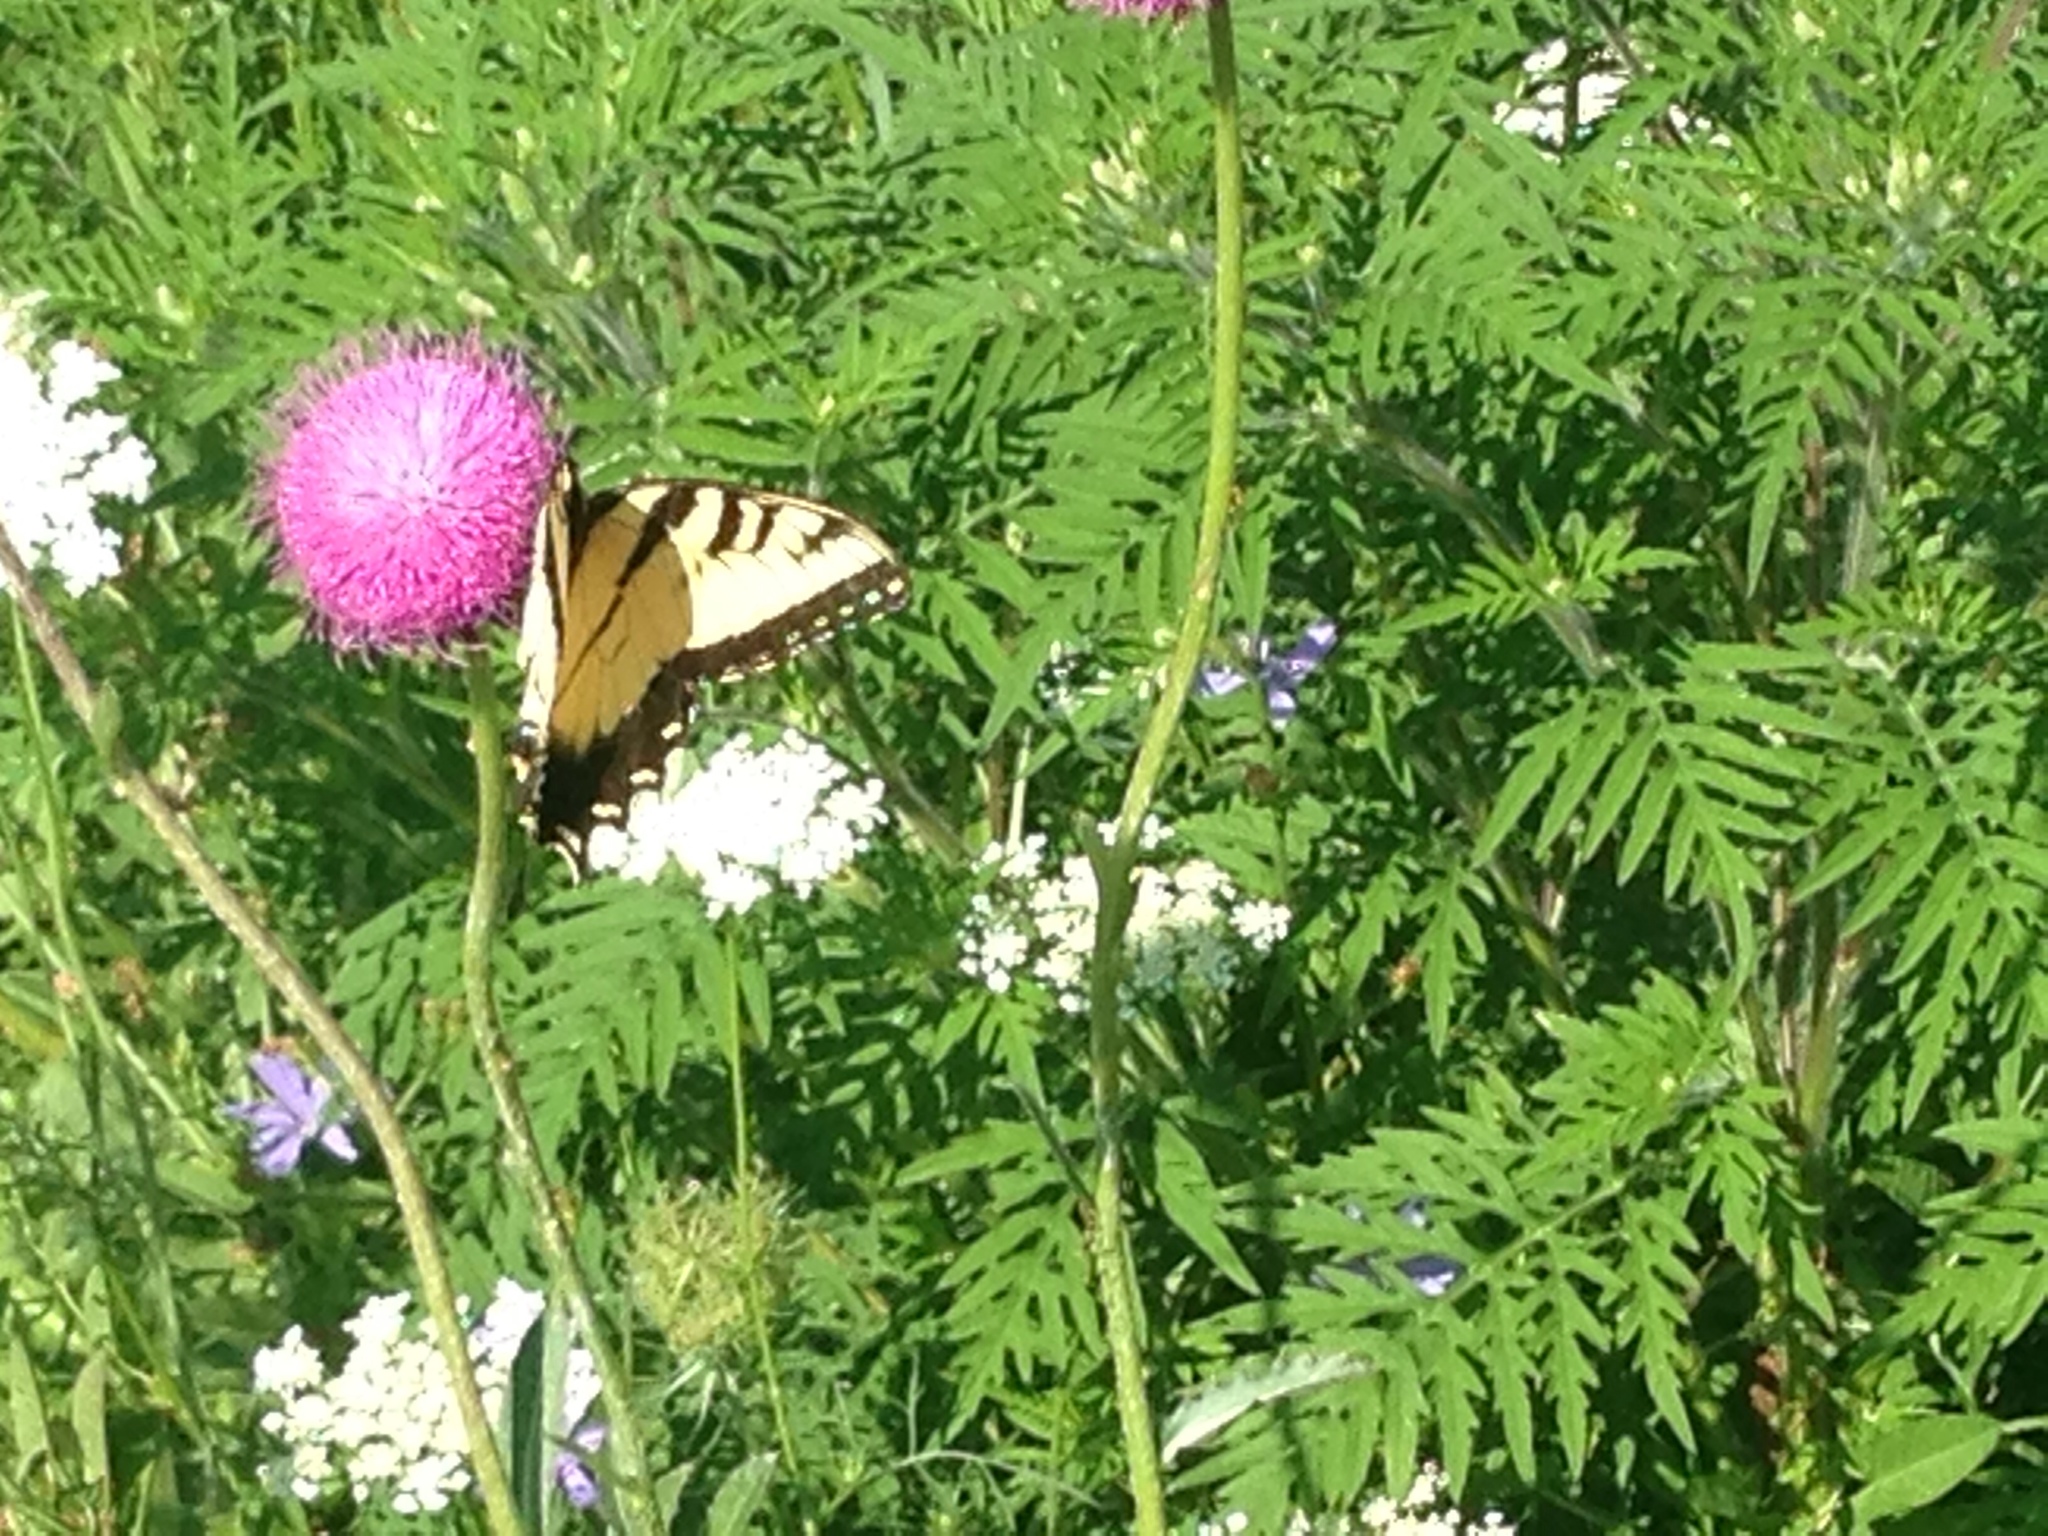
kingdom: Animalia
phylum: Arthropoda
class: Insecta
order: Lepidoptera
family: Papilionidae
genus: Papilio
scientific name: Papilio glaucus
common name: Tiger swallowtail
